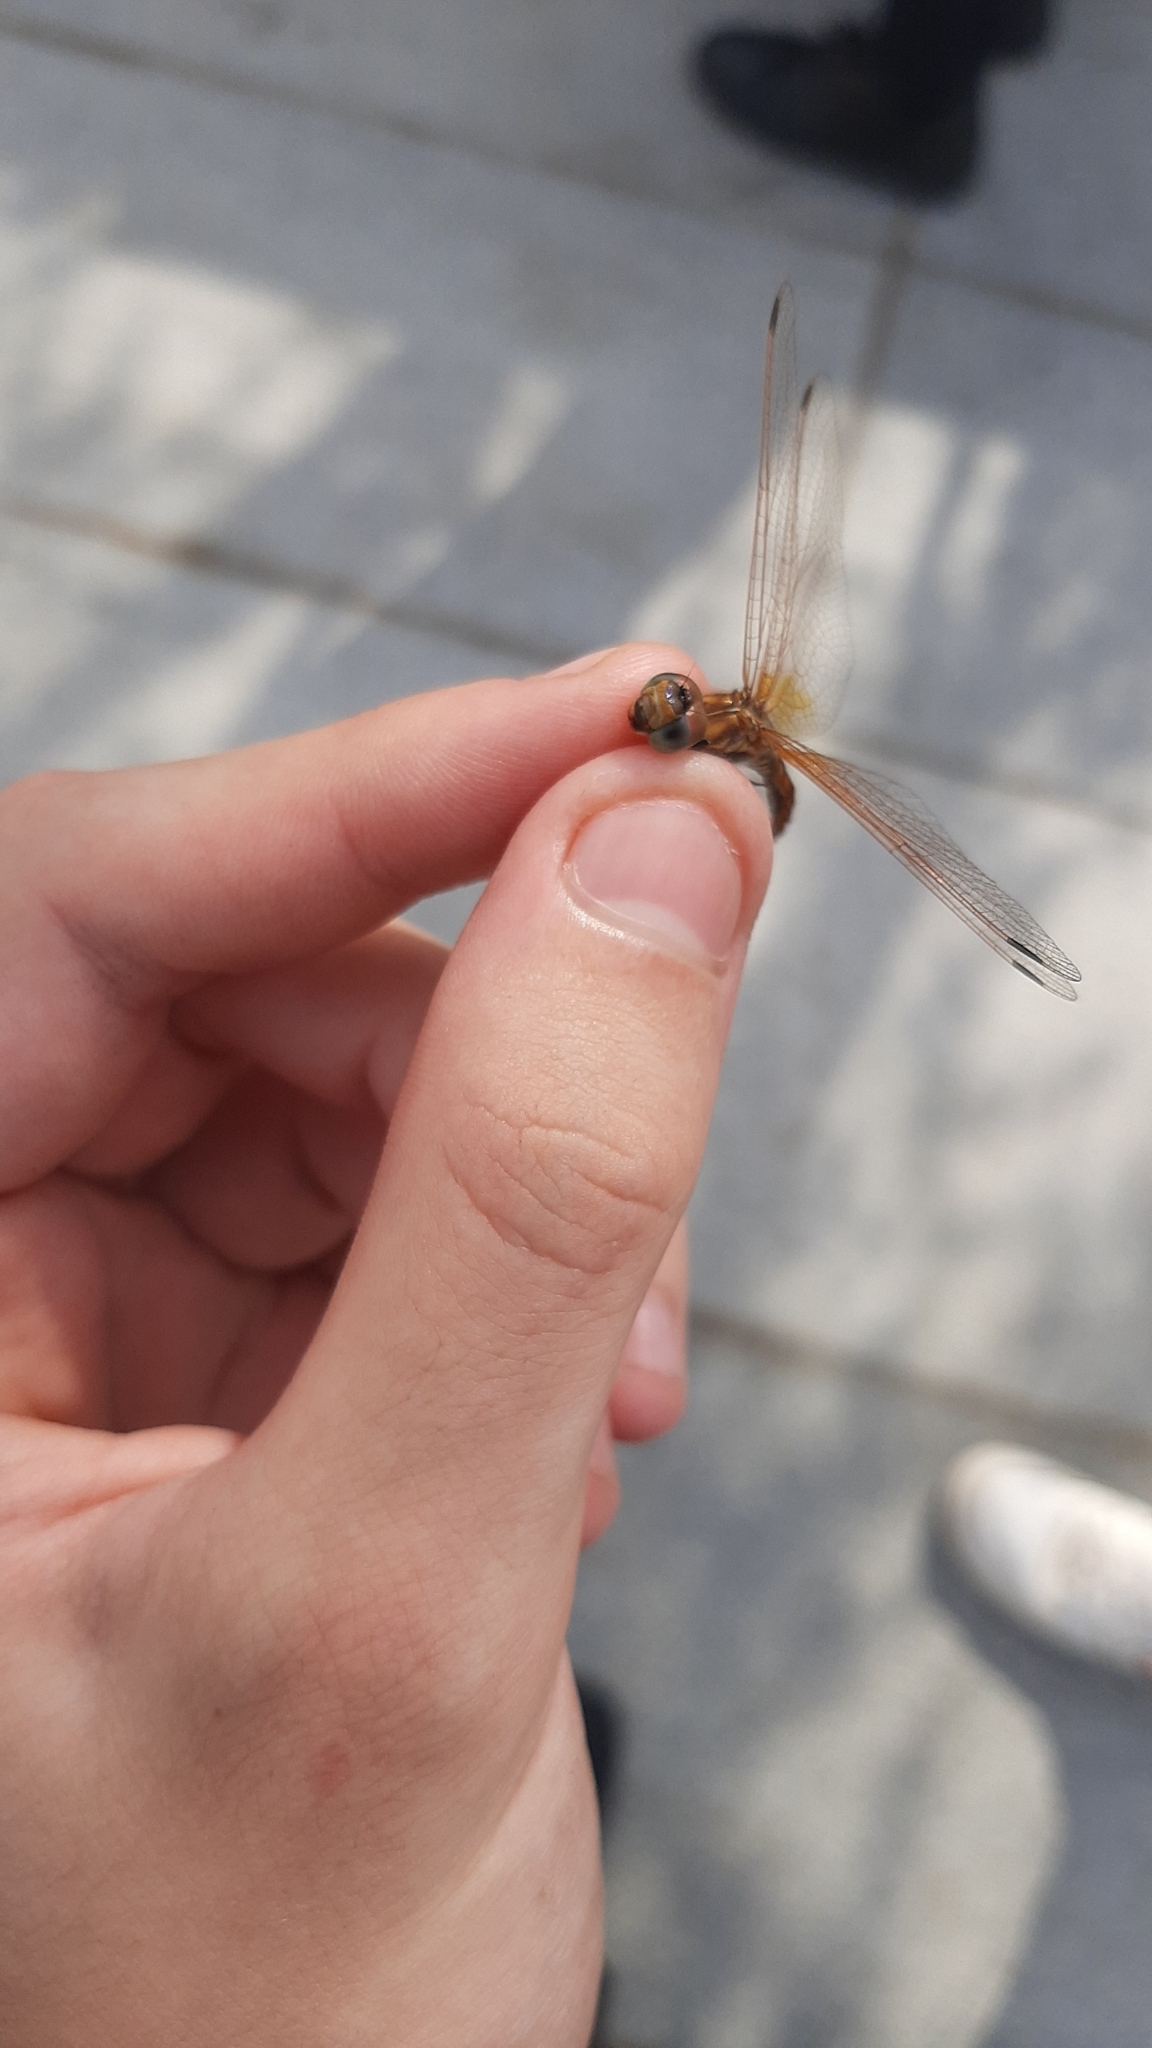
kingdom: Animalia
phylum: Arthropoda
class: Insecta
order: Odonata
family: Libellulidae
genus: Trithemis
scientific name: Trithemis annulata
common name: Violet dropwing
